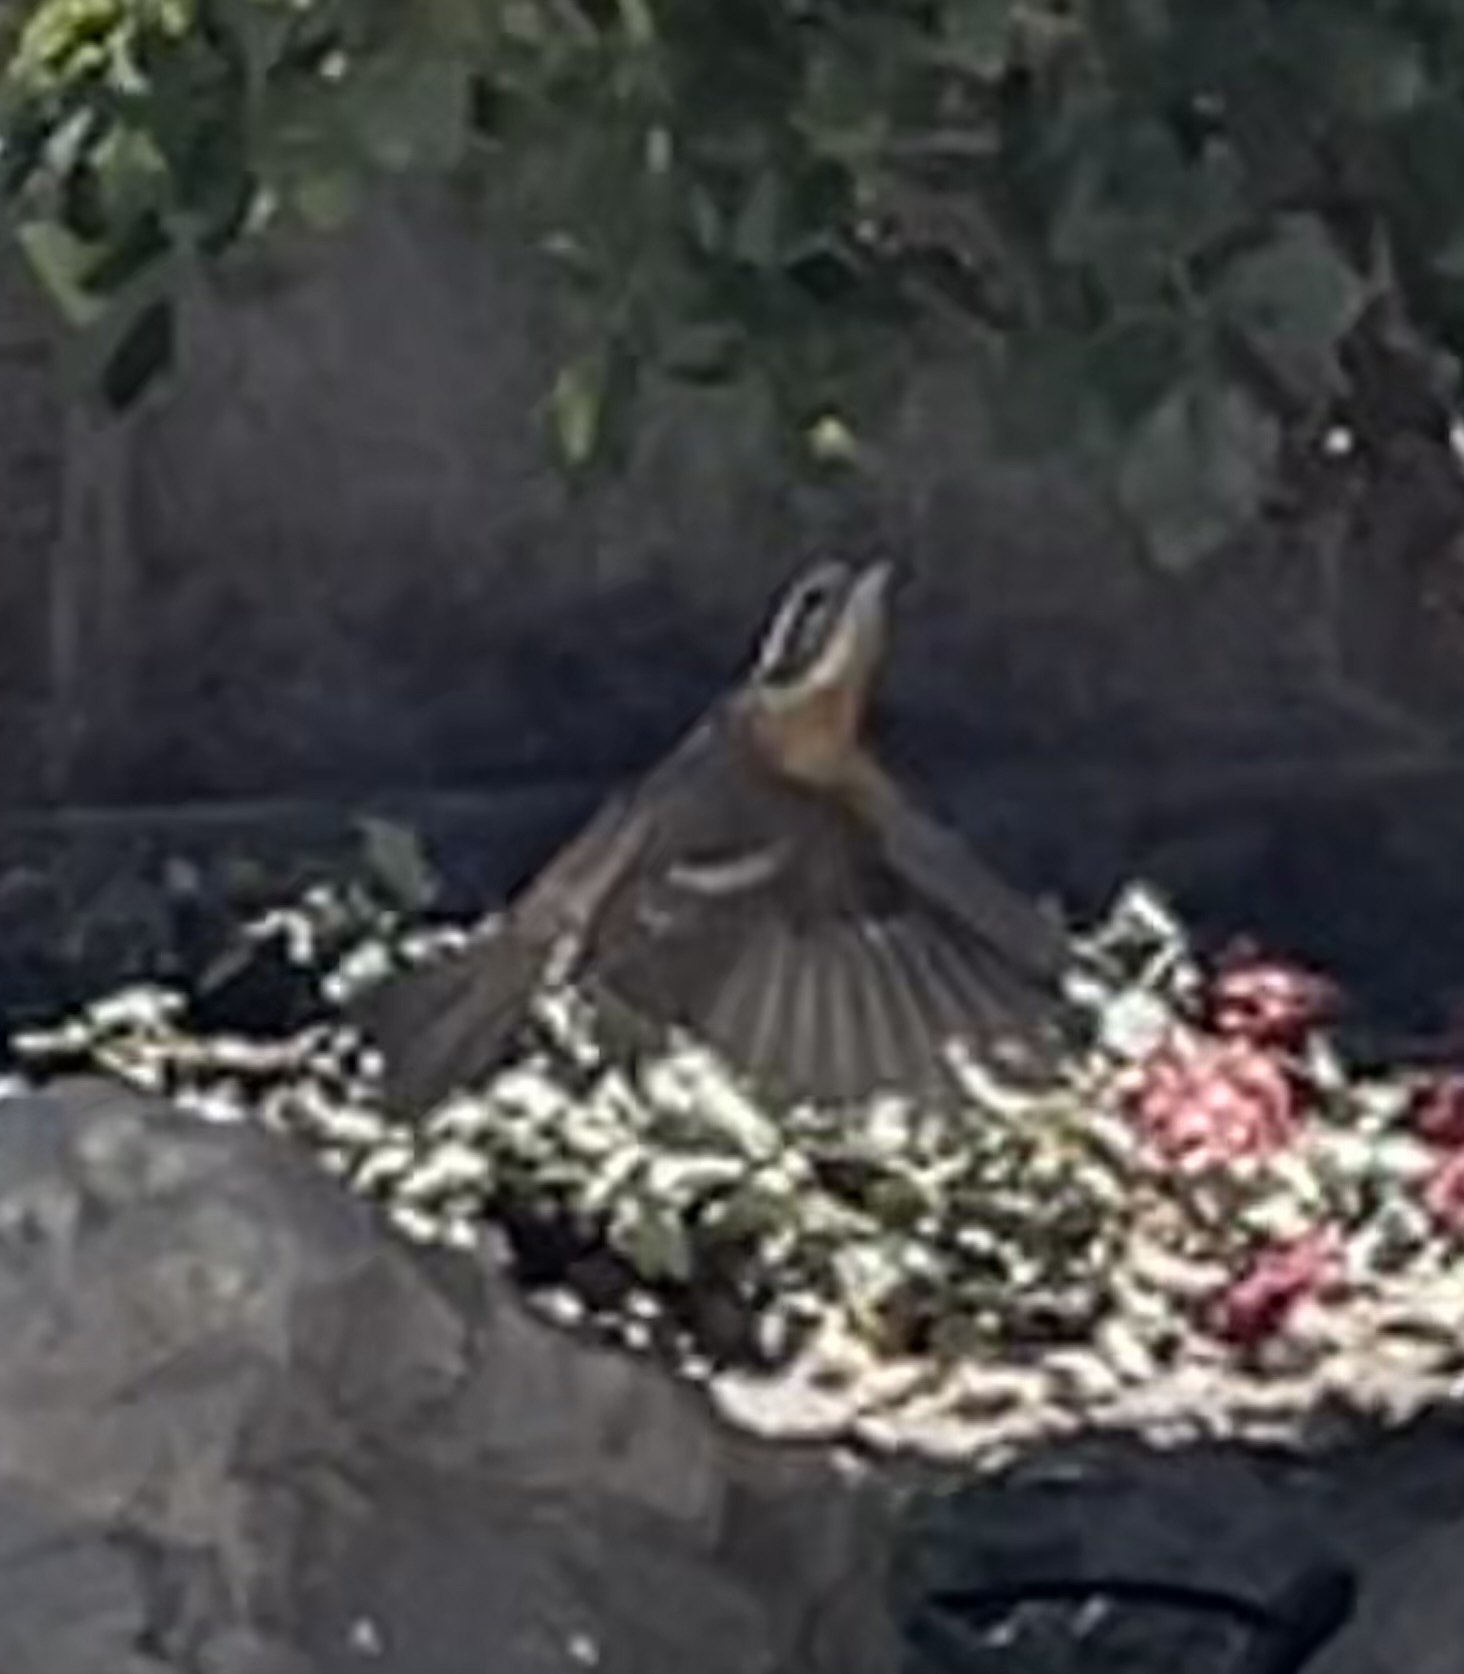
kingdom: Animalia
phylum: Chordata
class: Aves
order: Passeriformes
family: Cardinalidae
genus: Pheucticus
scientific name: Pheucticus melanocephalus
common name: Black-headed grosbeak
